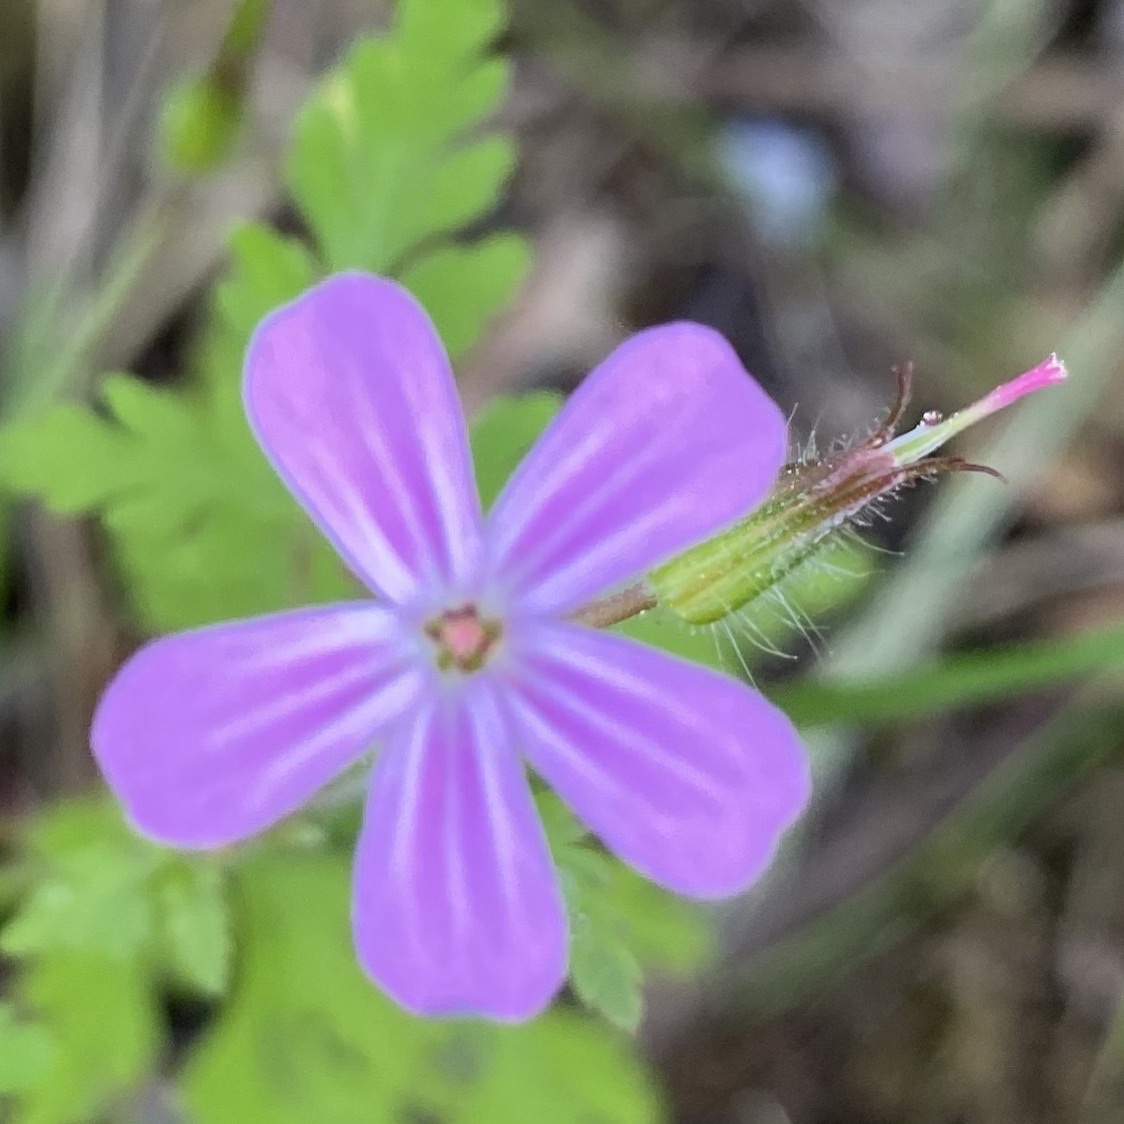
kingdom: Plantae
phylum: Tracheophyta
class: Magnoliopsida
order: Geraniales
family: Geraniaceae
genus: Geranium
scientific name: Geranium robertianum
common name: Herb-robert
